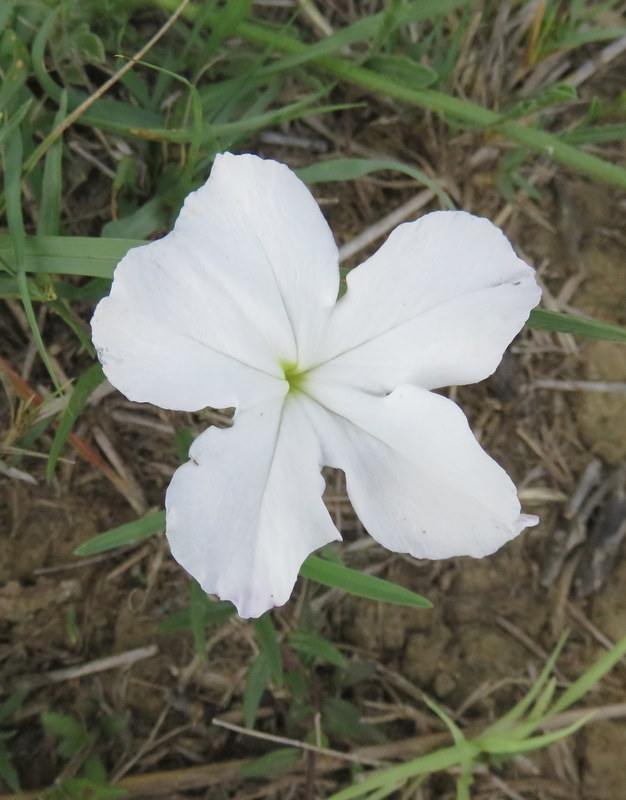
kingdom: Plantae
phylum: Tracheophyta
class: Magnoliopsida
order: Lamiales
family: Orobanchaceae
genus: Cycnium
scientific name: Cycnium adonense
